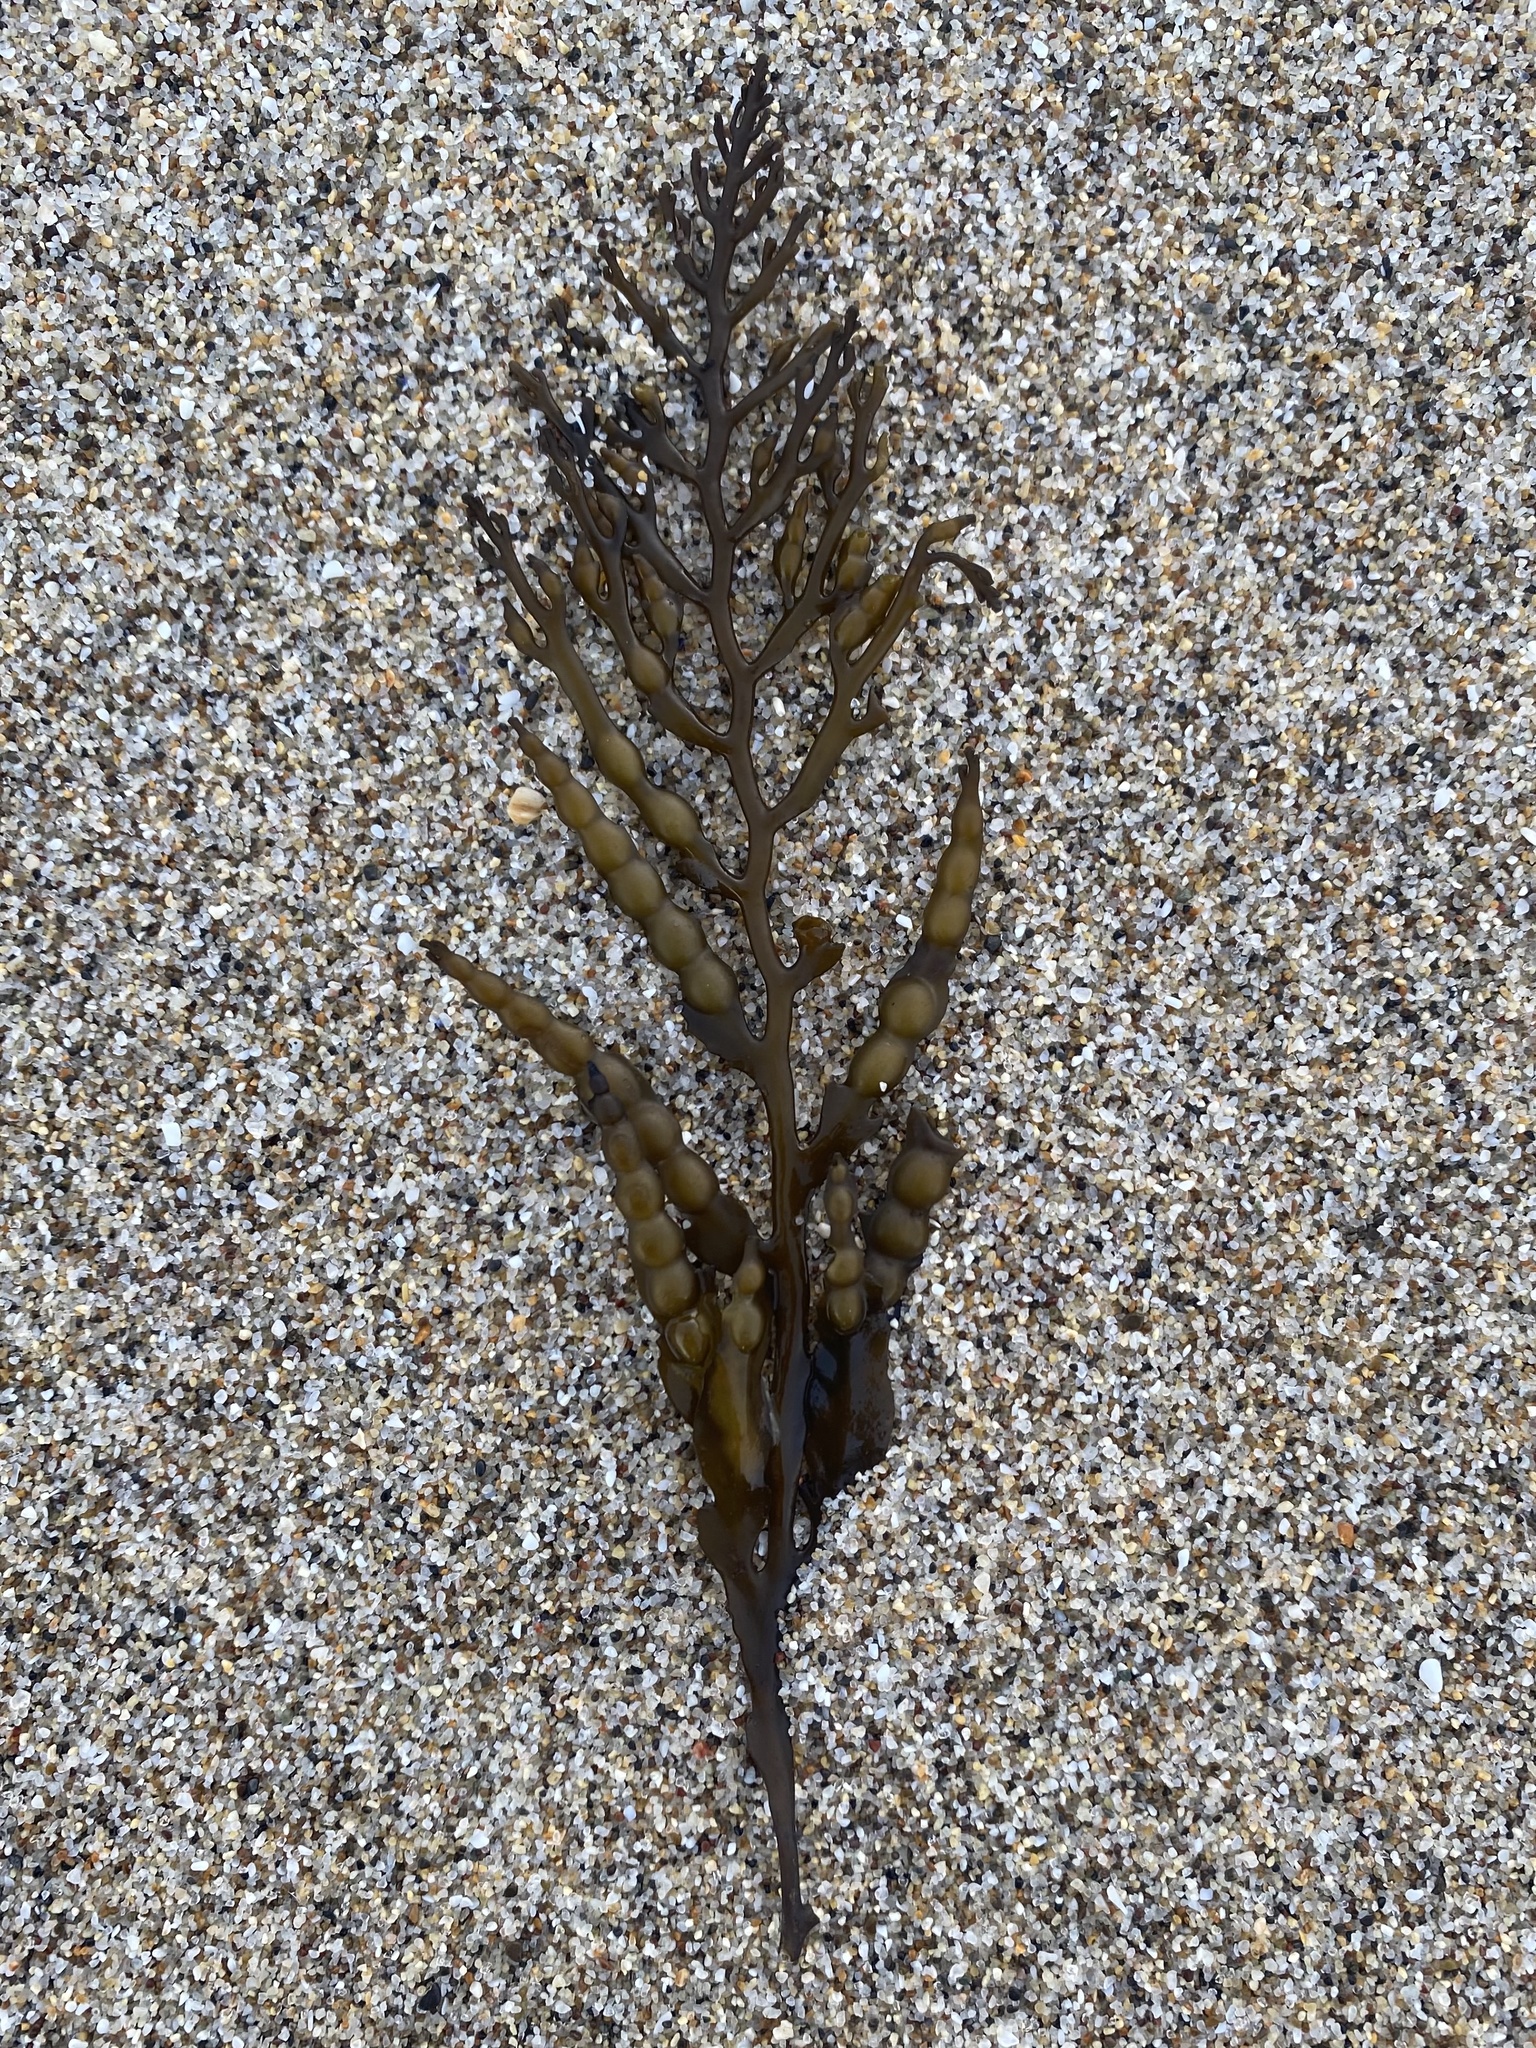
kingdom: Chromista
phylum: Ochrophyta
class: Phaeophyceae
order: Fucales
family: Sargassaceae
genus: Stephanocystis
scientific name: Stephanocystis
